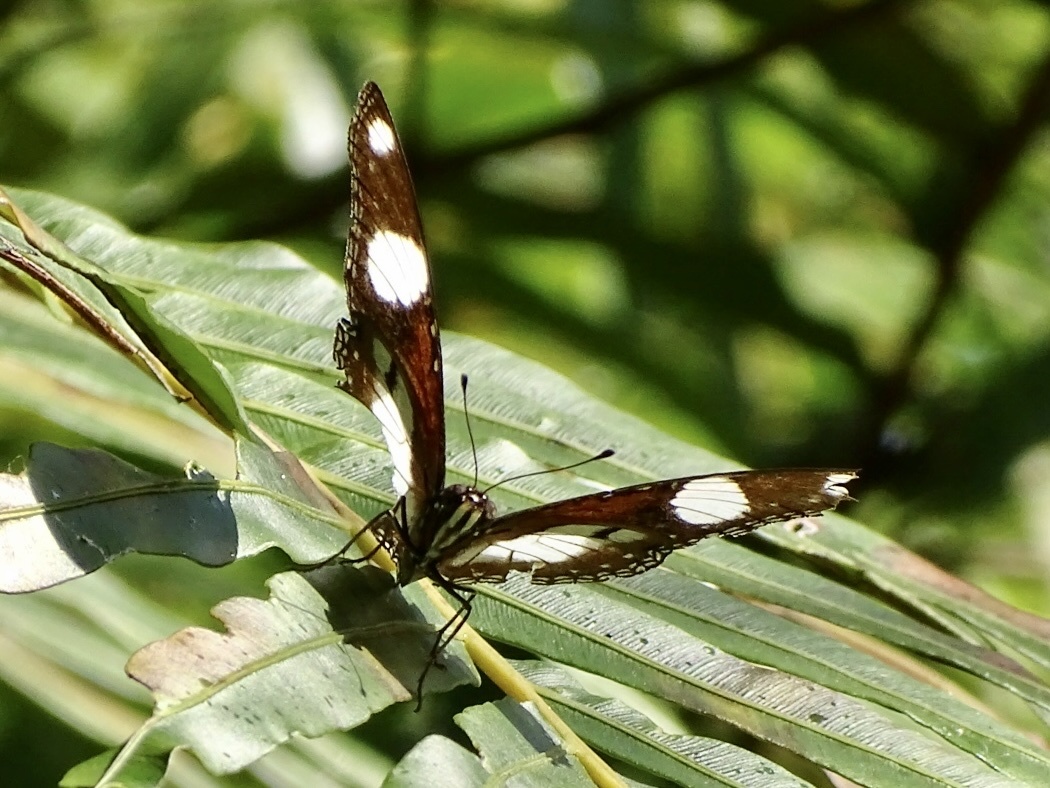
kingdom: Animalia
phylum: Arthropoda
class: Insecta
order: Lepidoptera
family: Nymphalidae
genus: Hypolimnas
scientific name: Hypolimnas misippus
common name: False plain tiger
